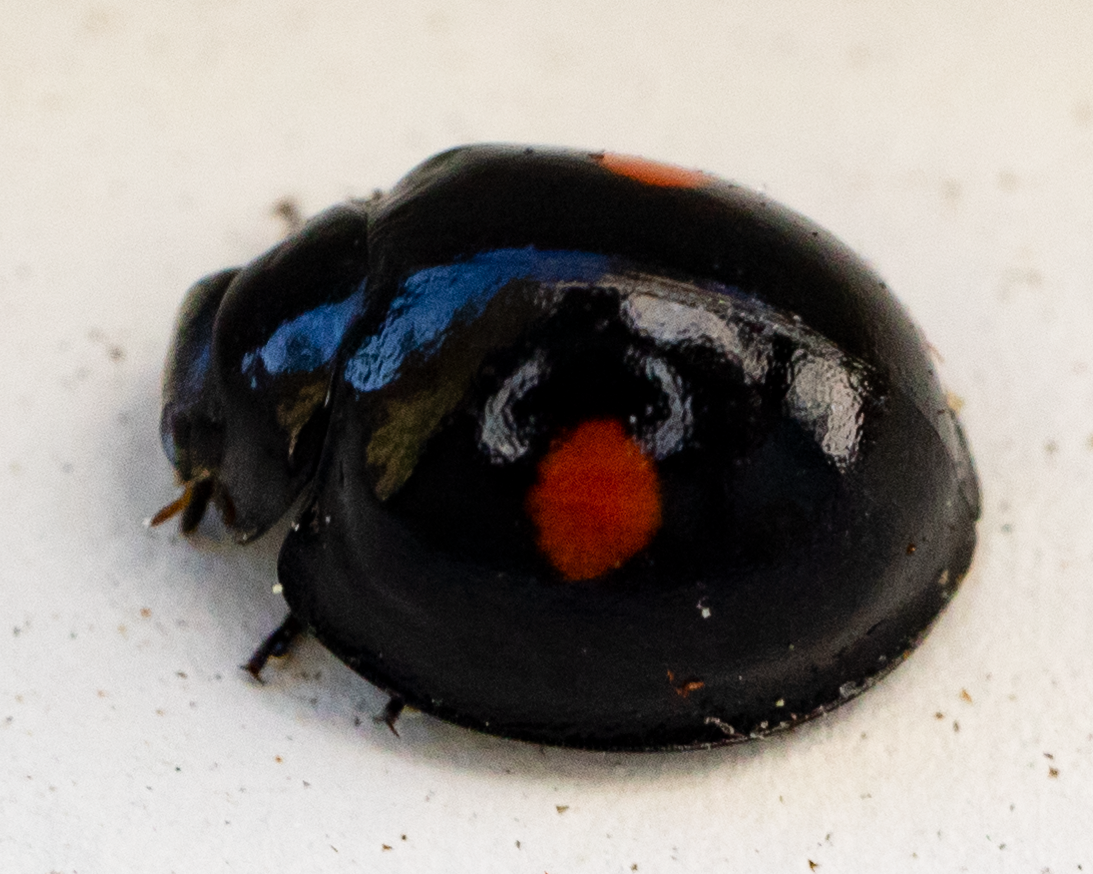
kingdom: Animalia
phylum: Arthropoda
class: Insecta
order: Coleoptera
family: Coccinellidae
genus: Chilocorus
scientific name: Chilocorus stigma
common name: Twicestabbed lady beetle
